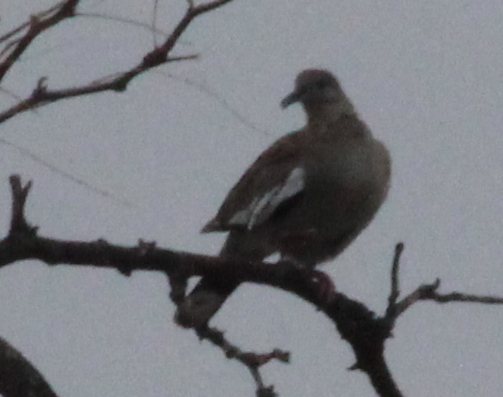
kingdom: Animalia
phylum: Chordata
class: Aves
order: Columbiformes
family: Columbidae
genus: Zenaida
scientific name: Zenaida asiatica
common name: White-winged dove
